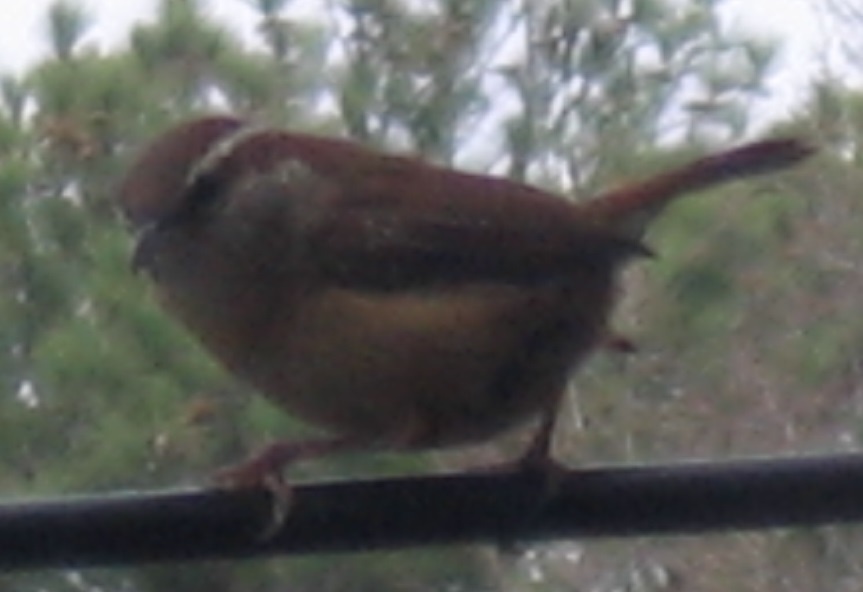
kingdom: Animalia
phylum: Chordata
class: Aves
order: Passeriformes
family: Troglodytidae
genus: Thryothorus
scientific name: Thryothorus ludovicianus
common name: Carolina wren
